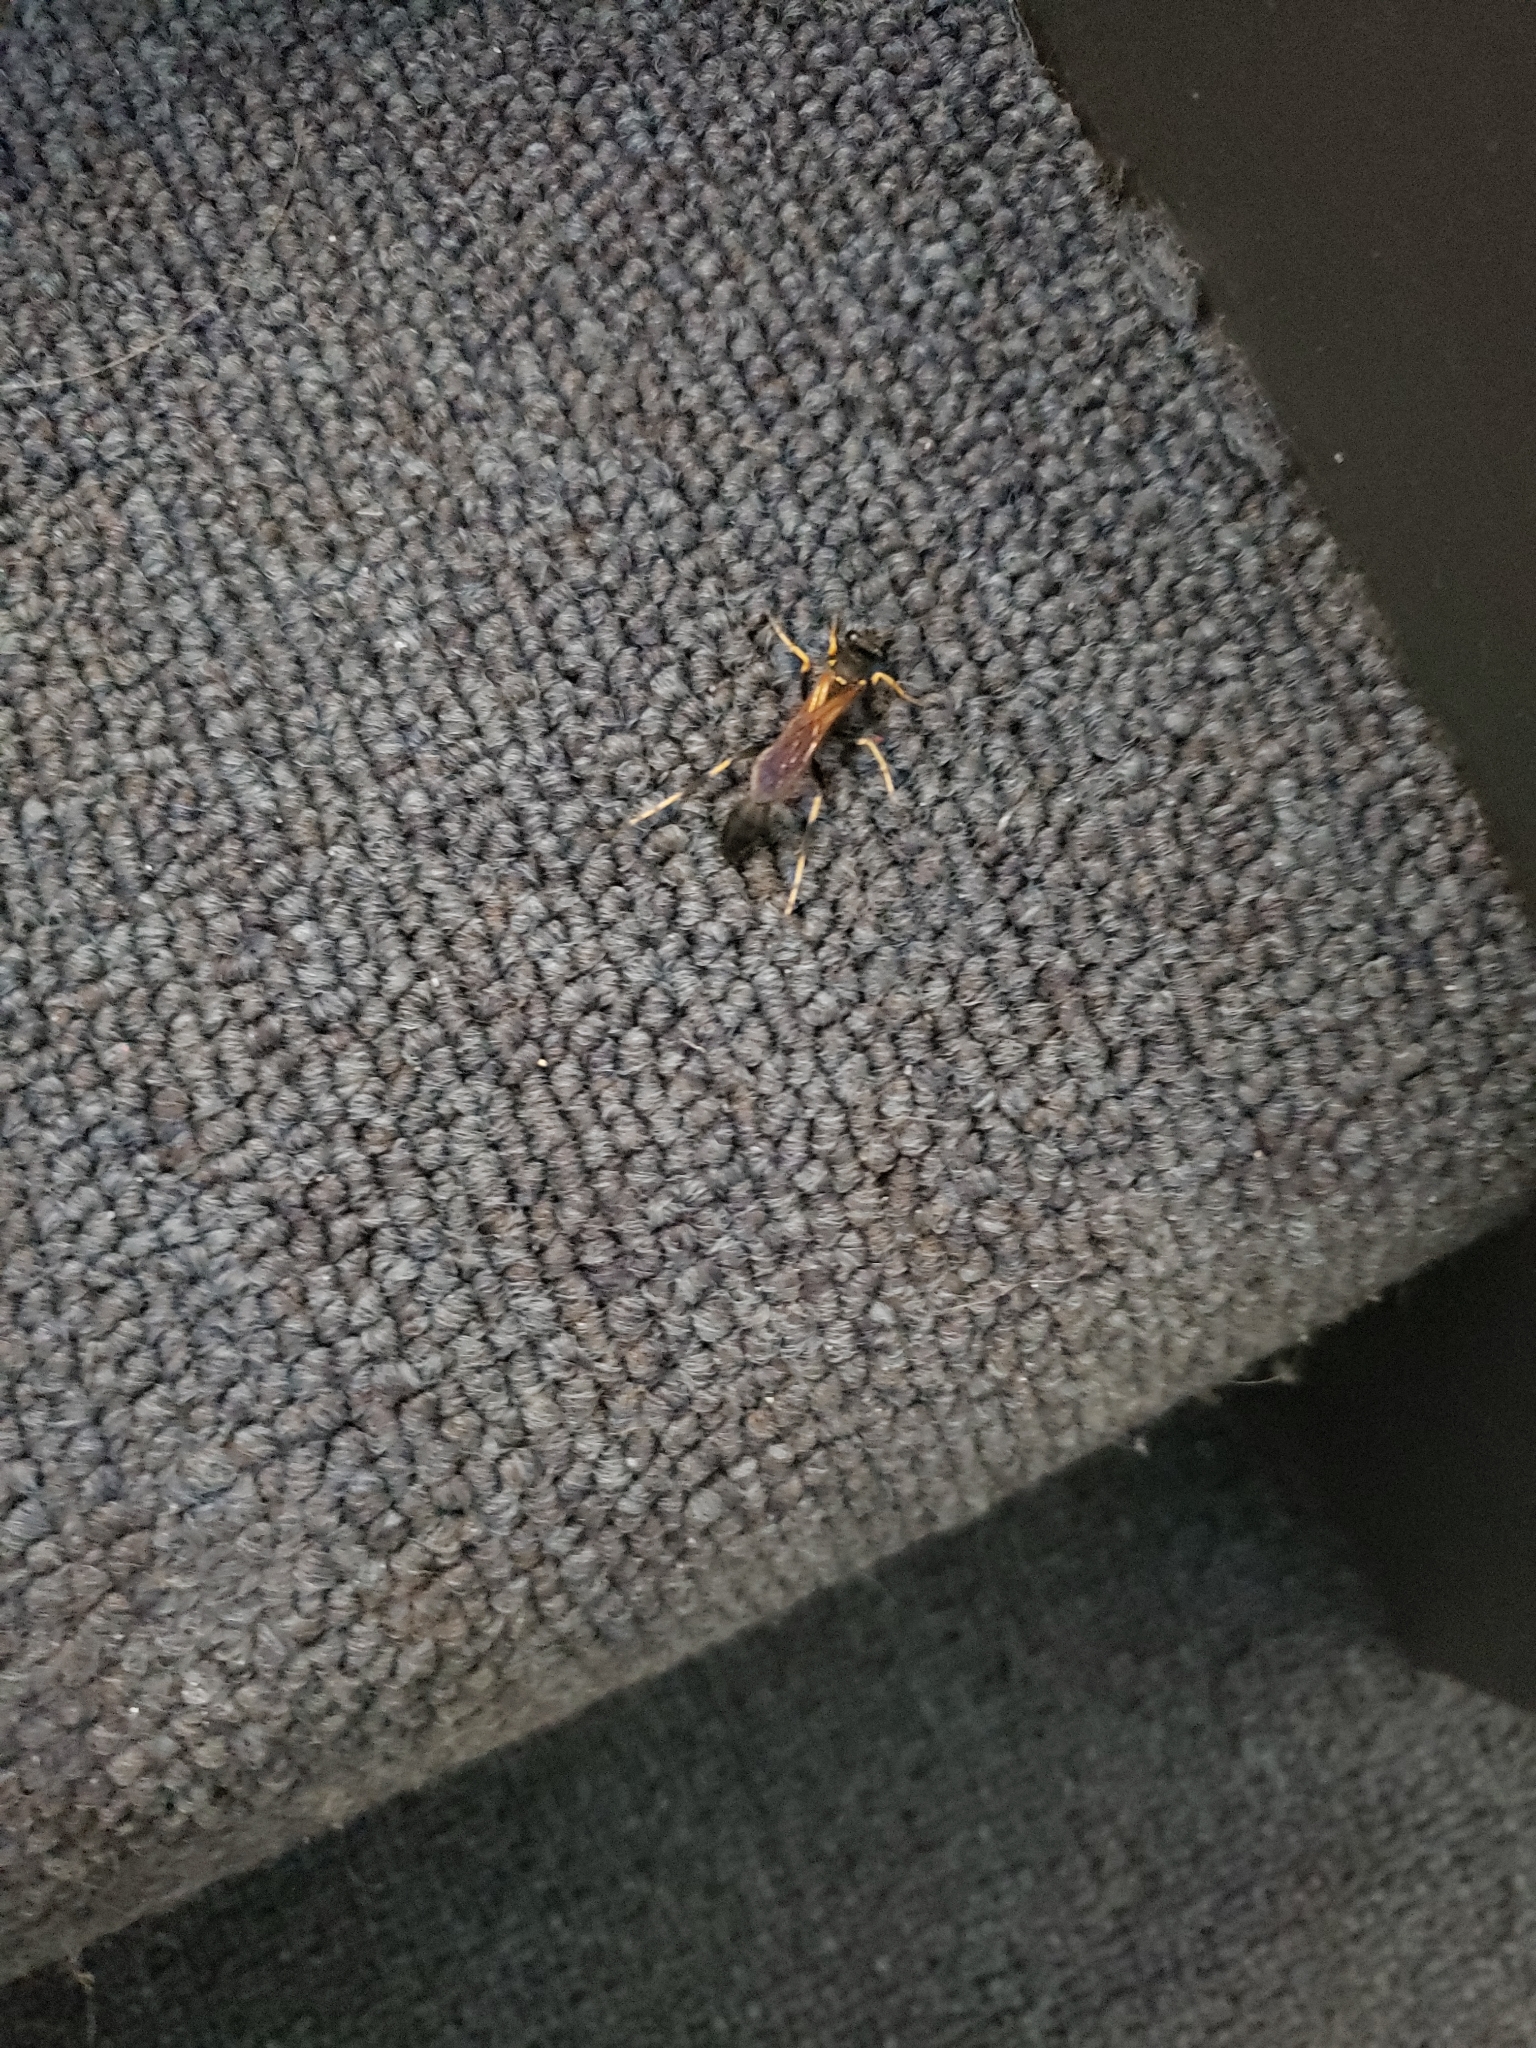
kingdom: Animalia
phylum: Arthropoda
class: Insecta
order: Hymenoptera
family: Sphecidae
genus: Sceliphron
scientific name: Sceliphron caementarium
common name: Mud dauber
